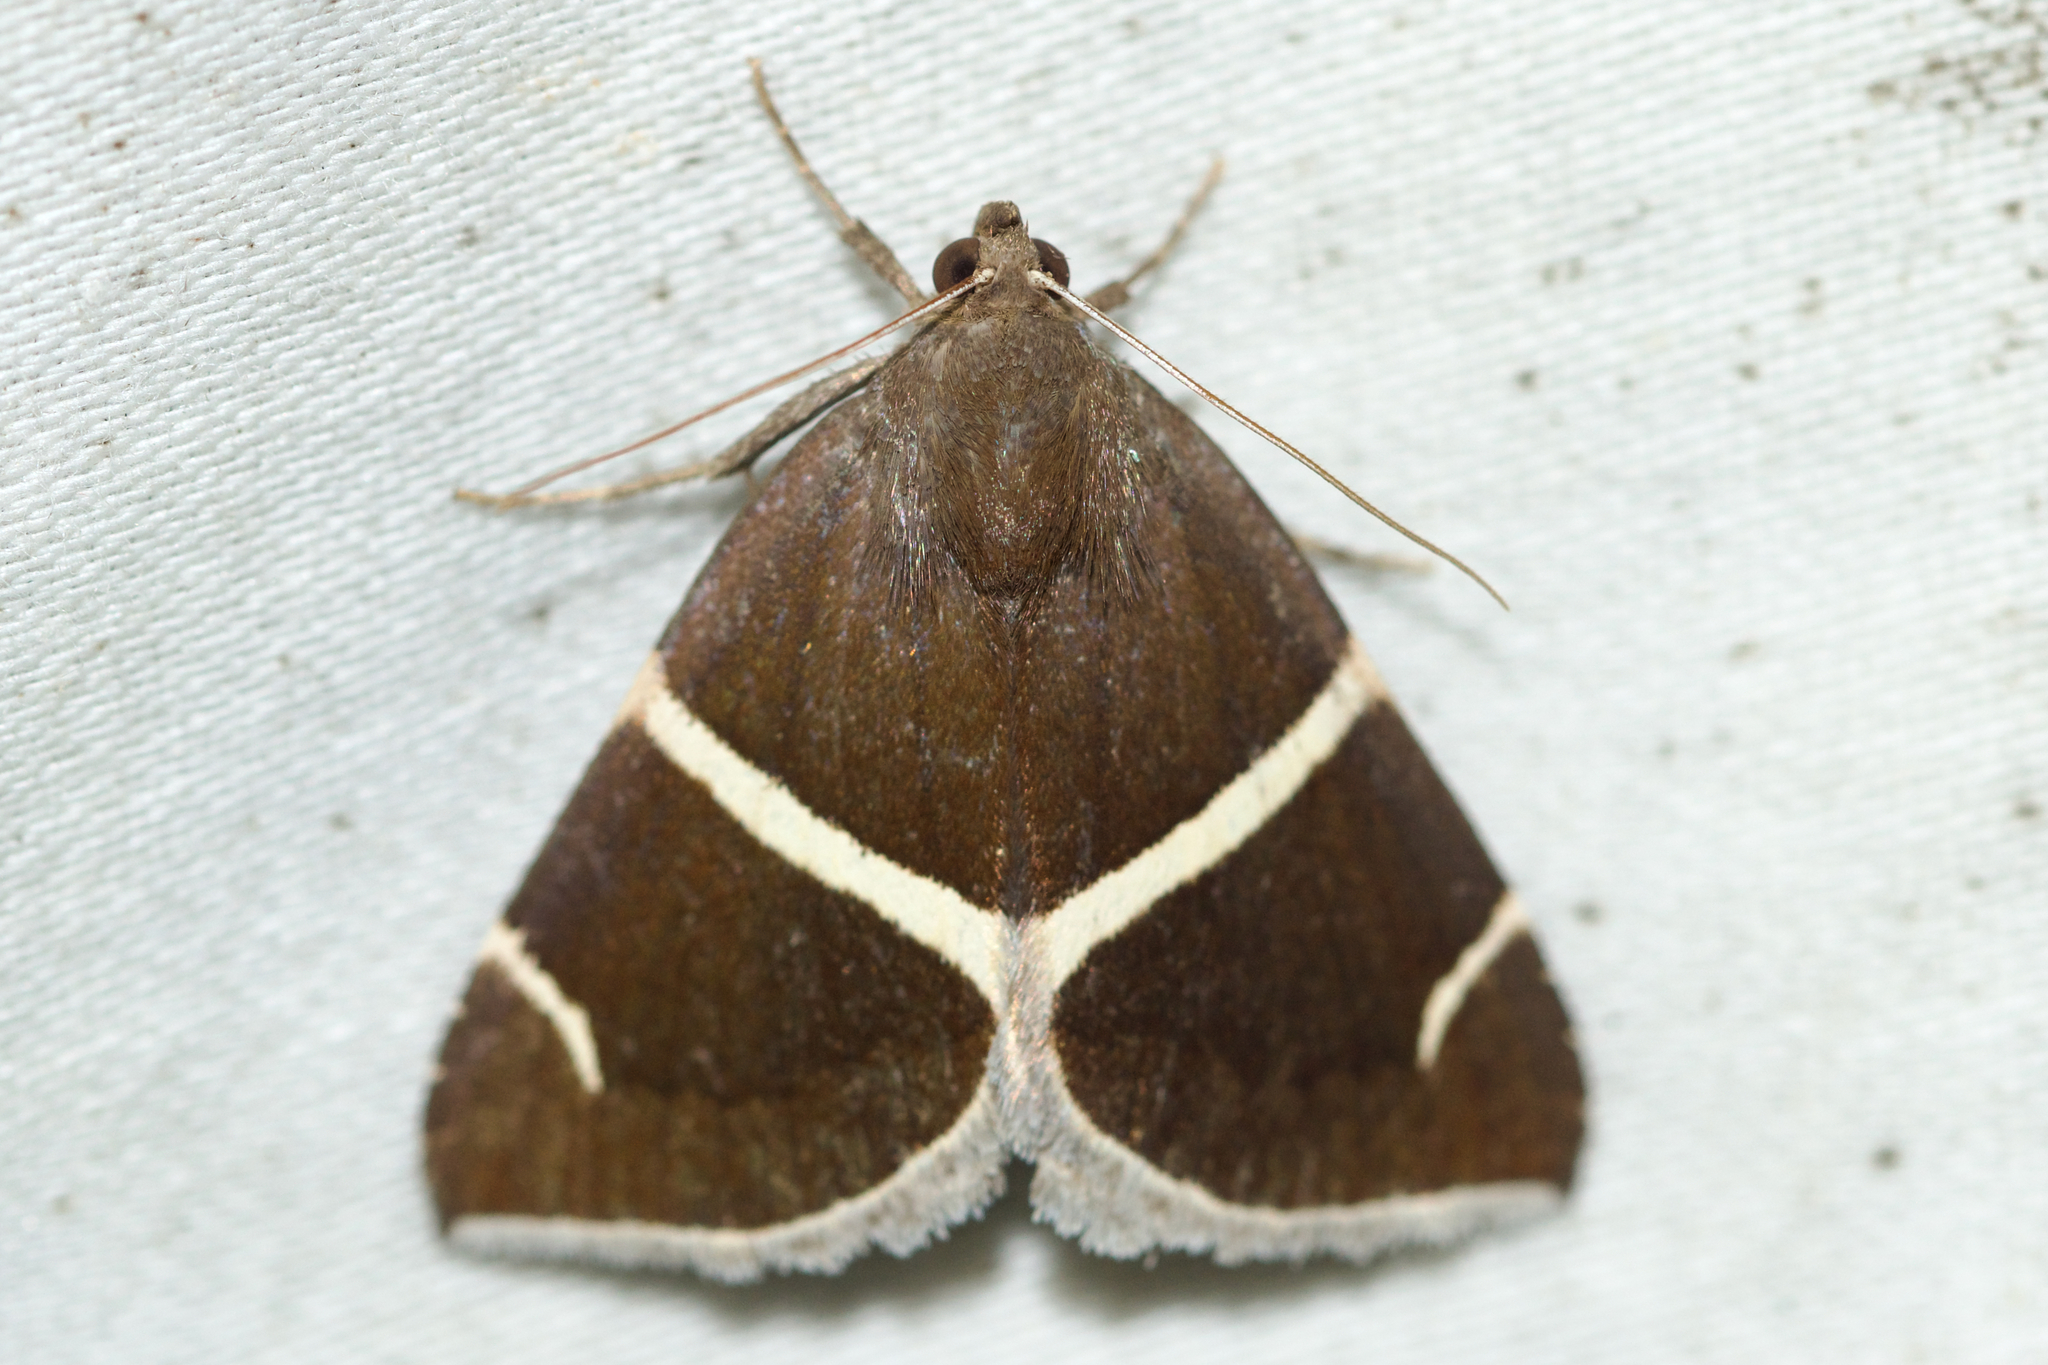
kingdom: Animalia
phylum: Arthropoda
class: Insecta
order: Lepidoptera
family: Erebidae
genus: Argyrostrotis
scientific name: Argyrostrotis anilis
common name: Short-lined chocolate
